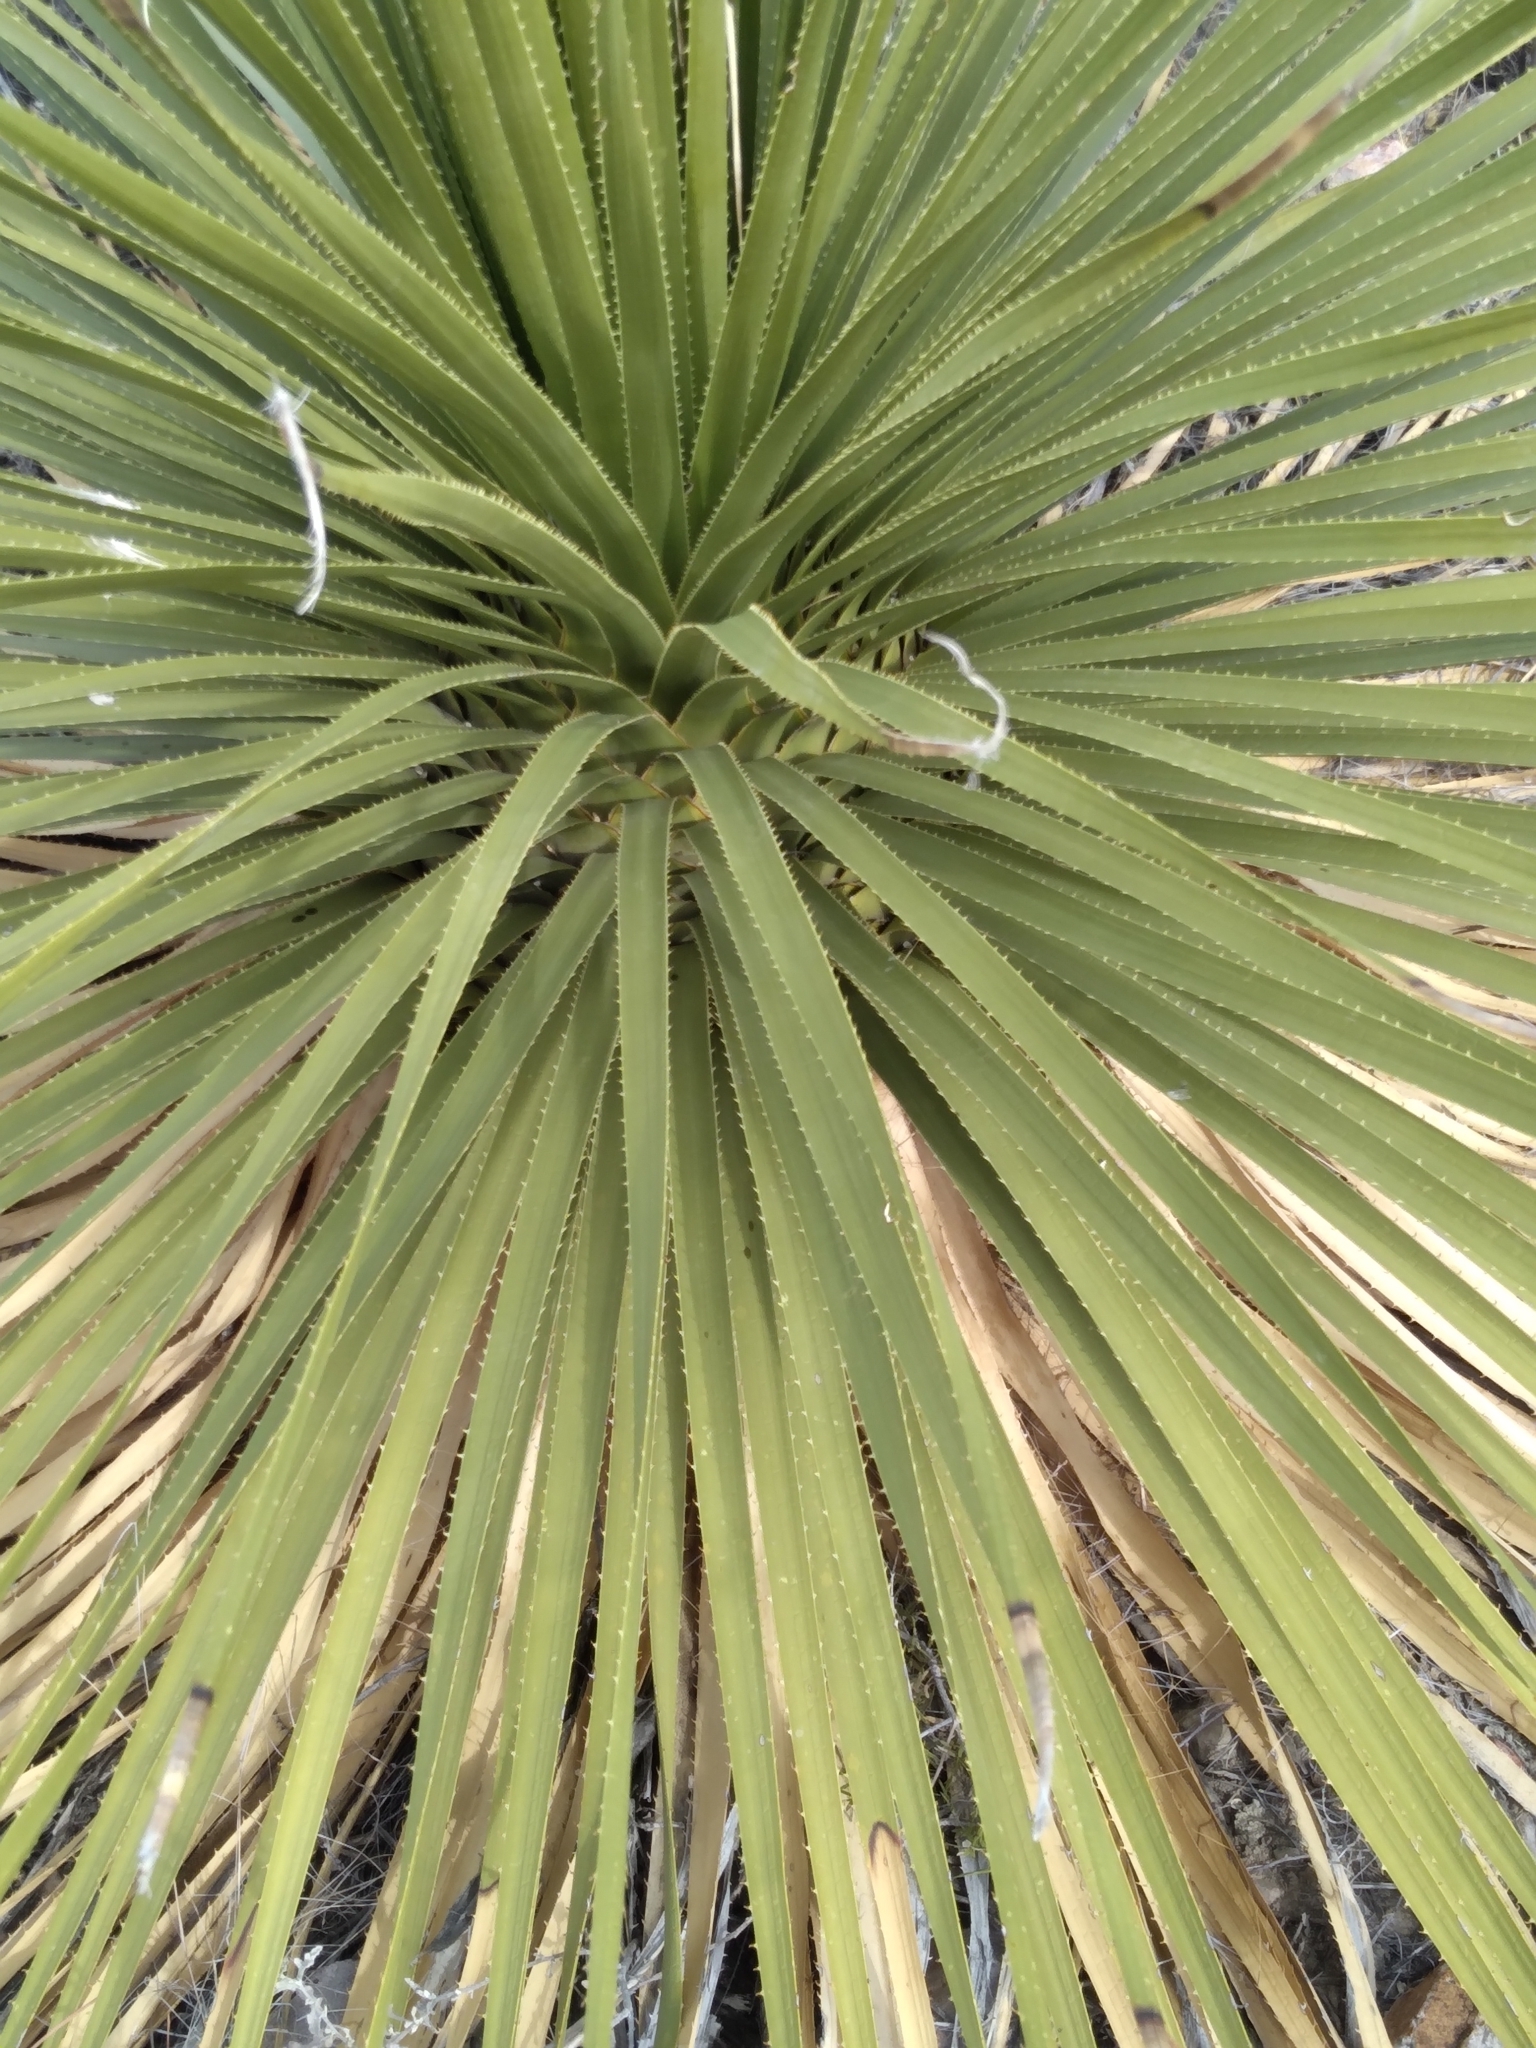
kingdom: Plantae
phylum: Tracheophyta
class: Liliopsida
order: Asparagales
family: Asparagaceae
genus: Dasylirion
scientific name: Dasylirion leiophyllum
